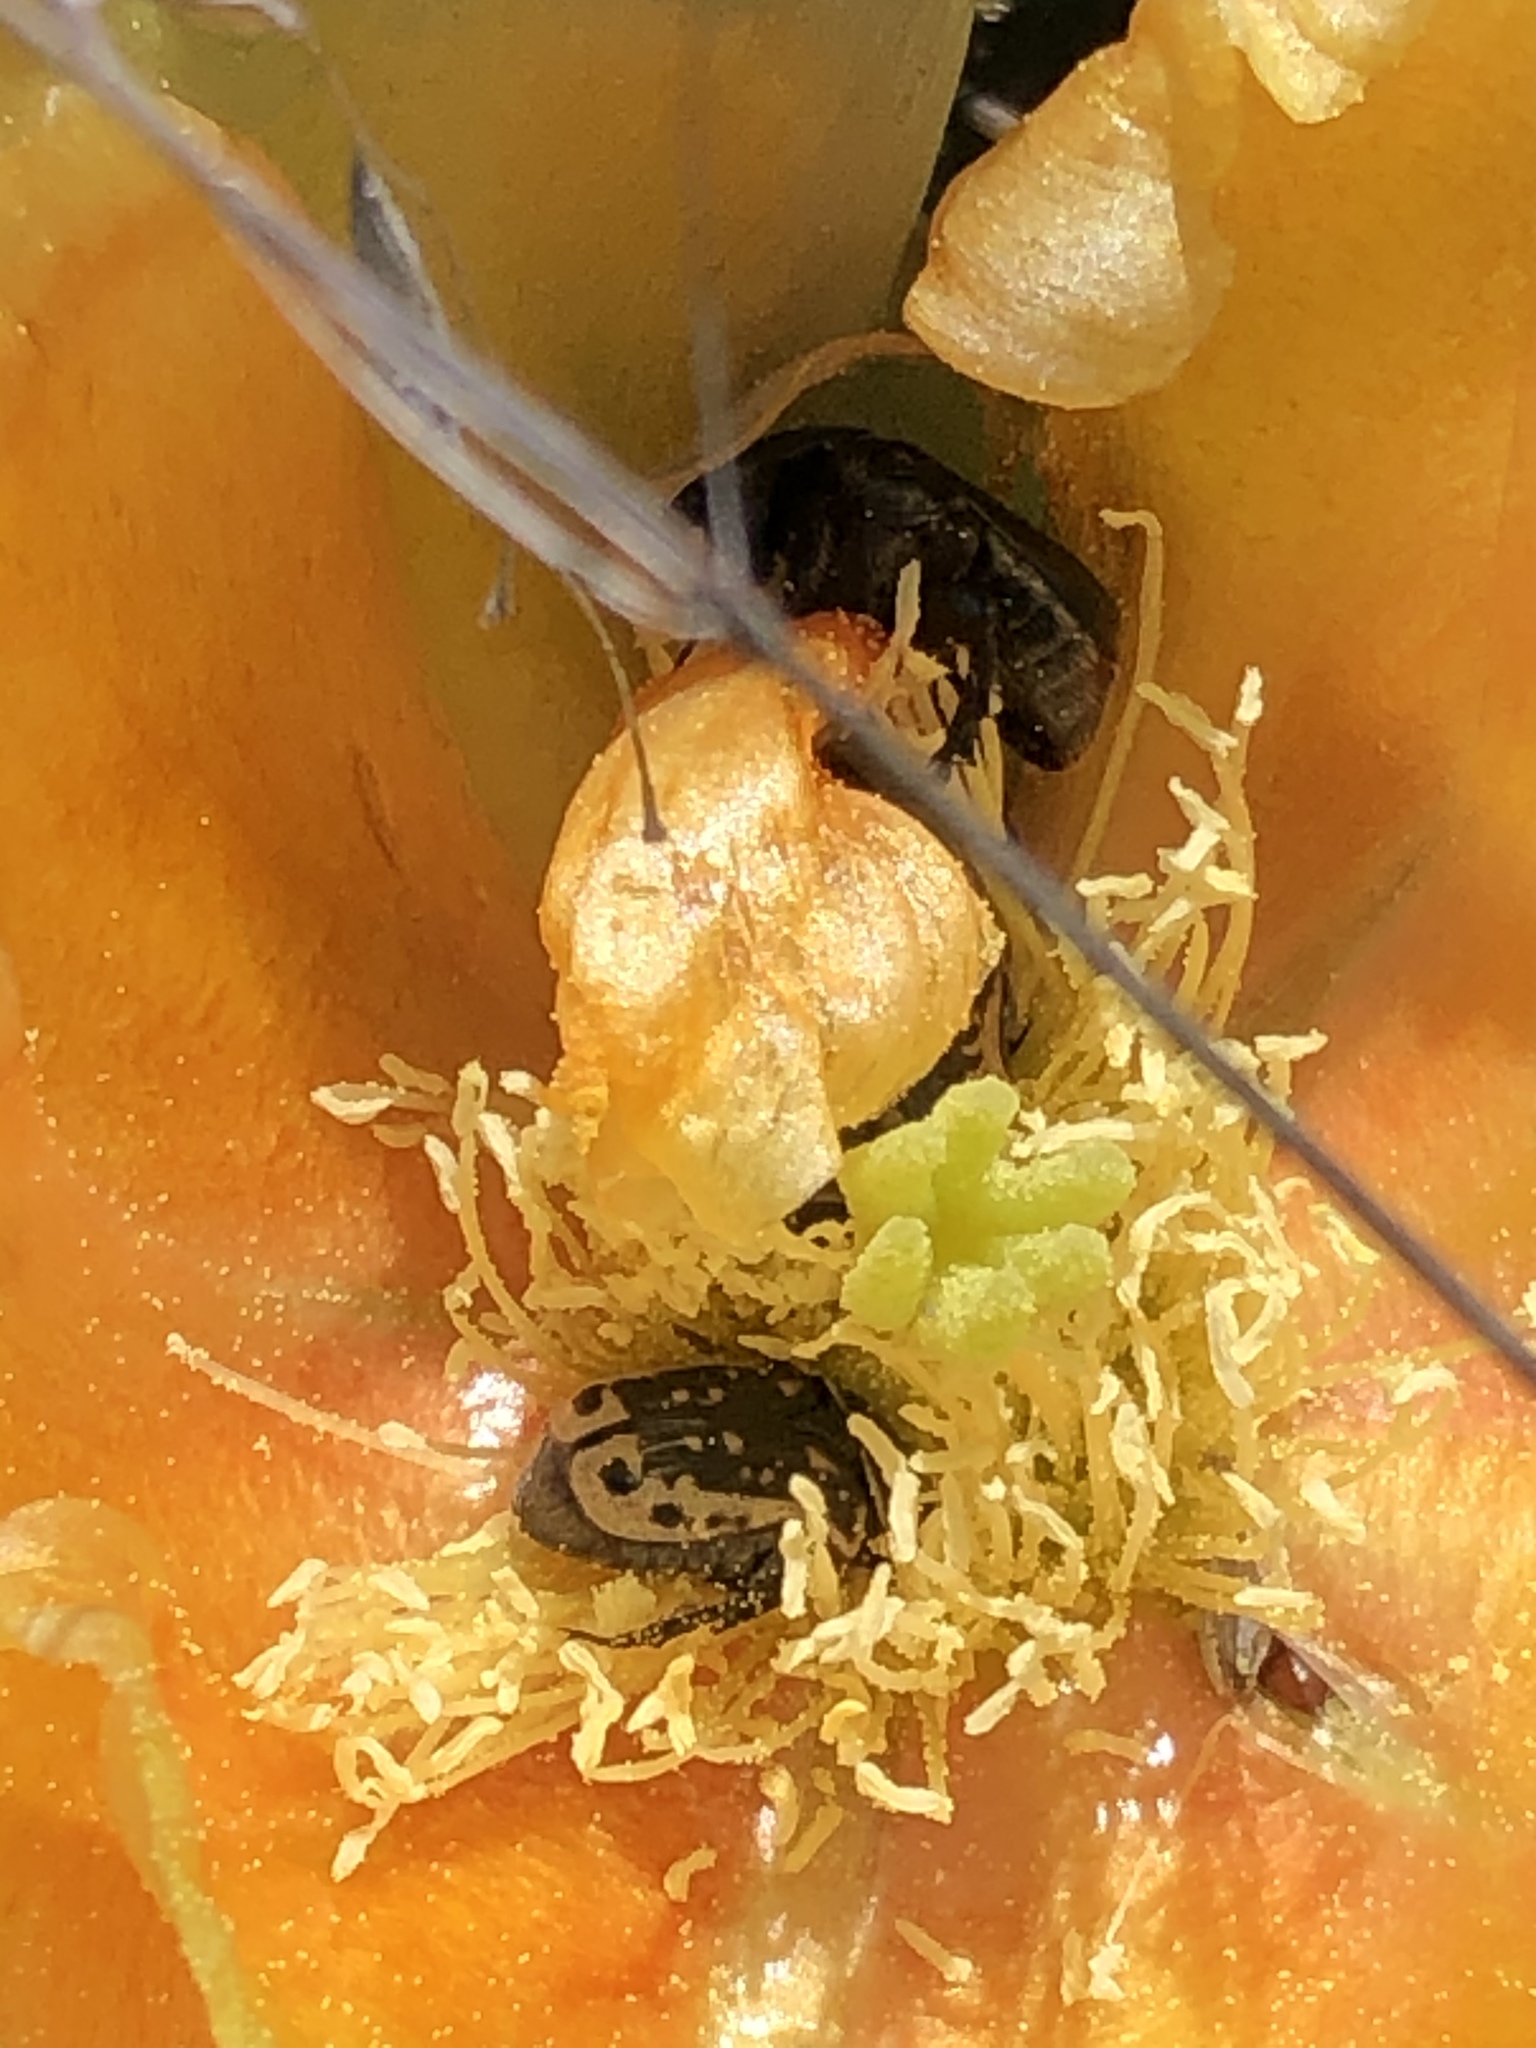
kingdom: Animalia
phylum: Arthropoda
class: Insecta
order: Coleoptera
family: Scarabaeidae
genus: Euphoria
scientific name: Euphoria kernii
